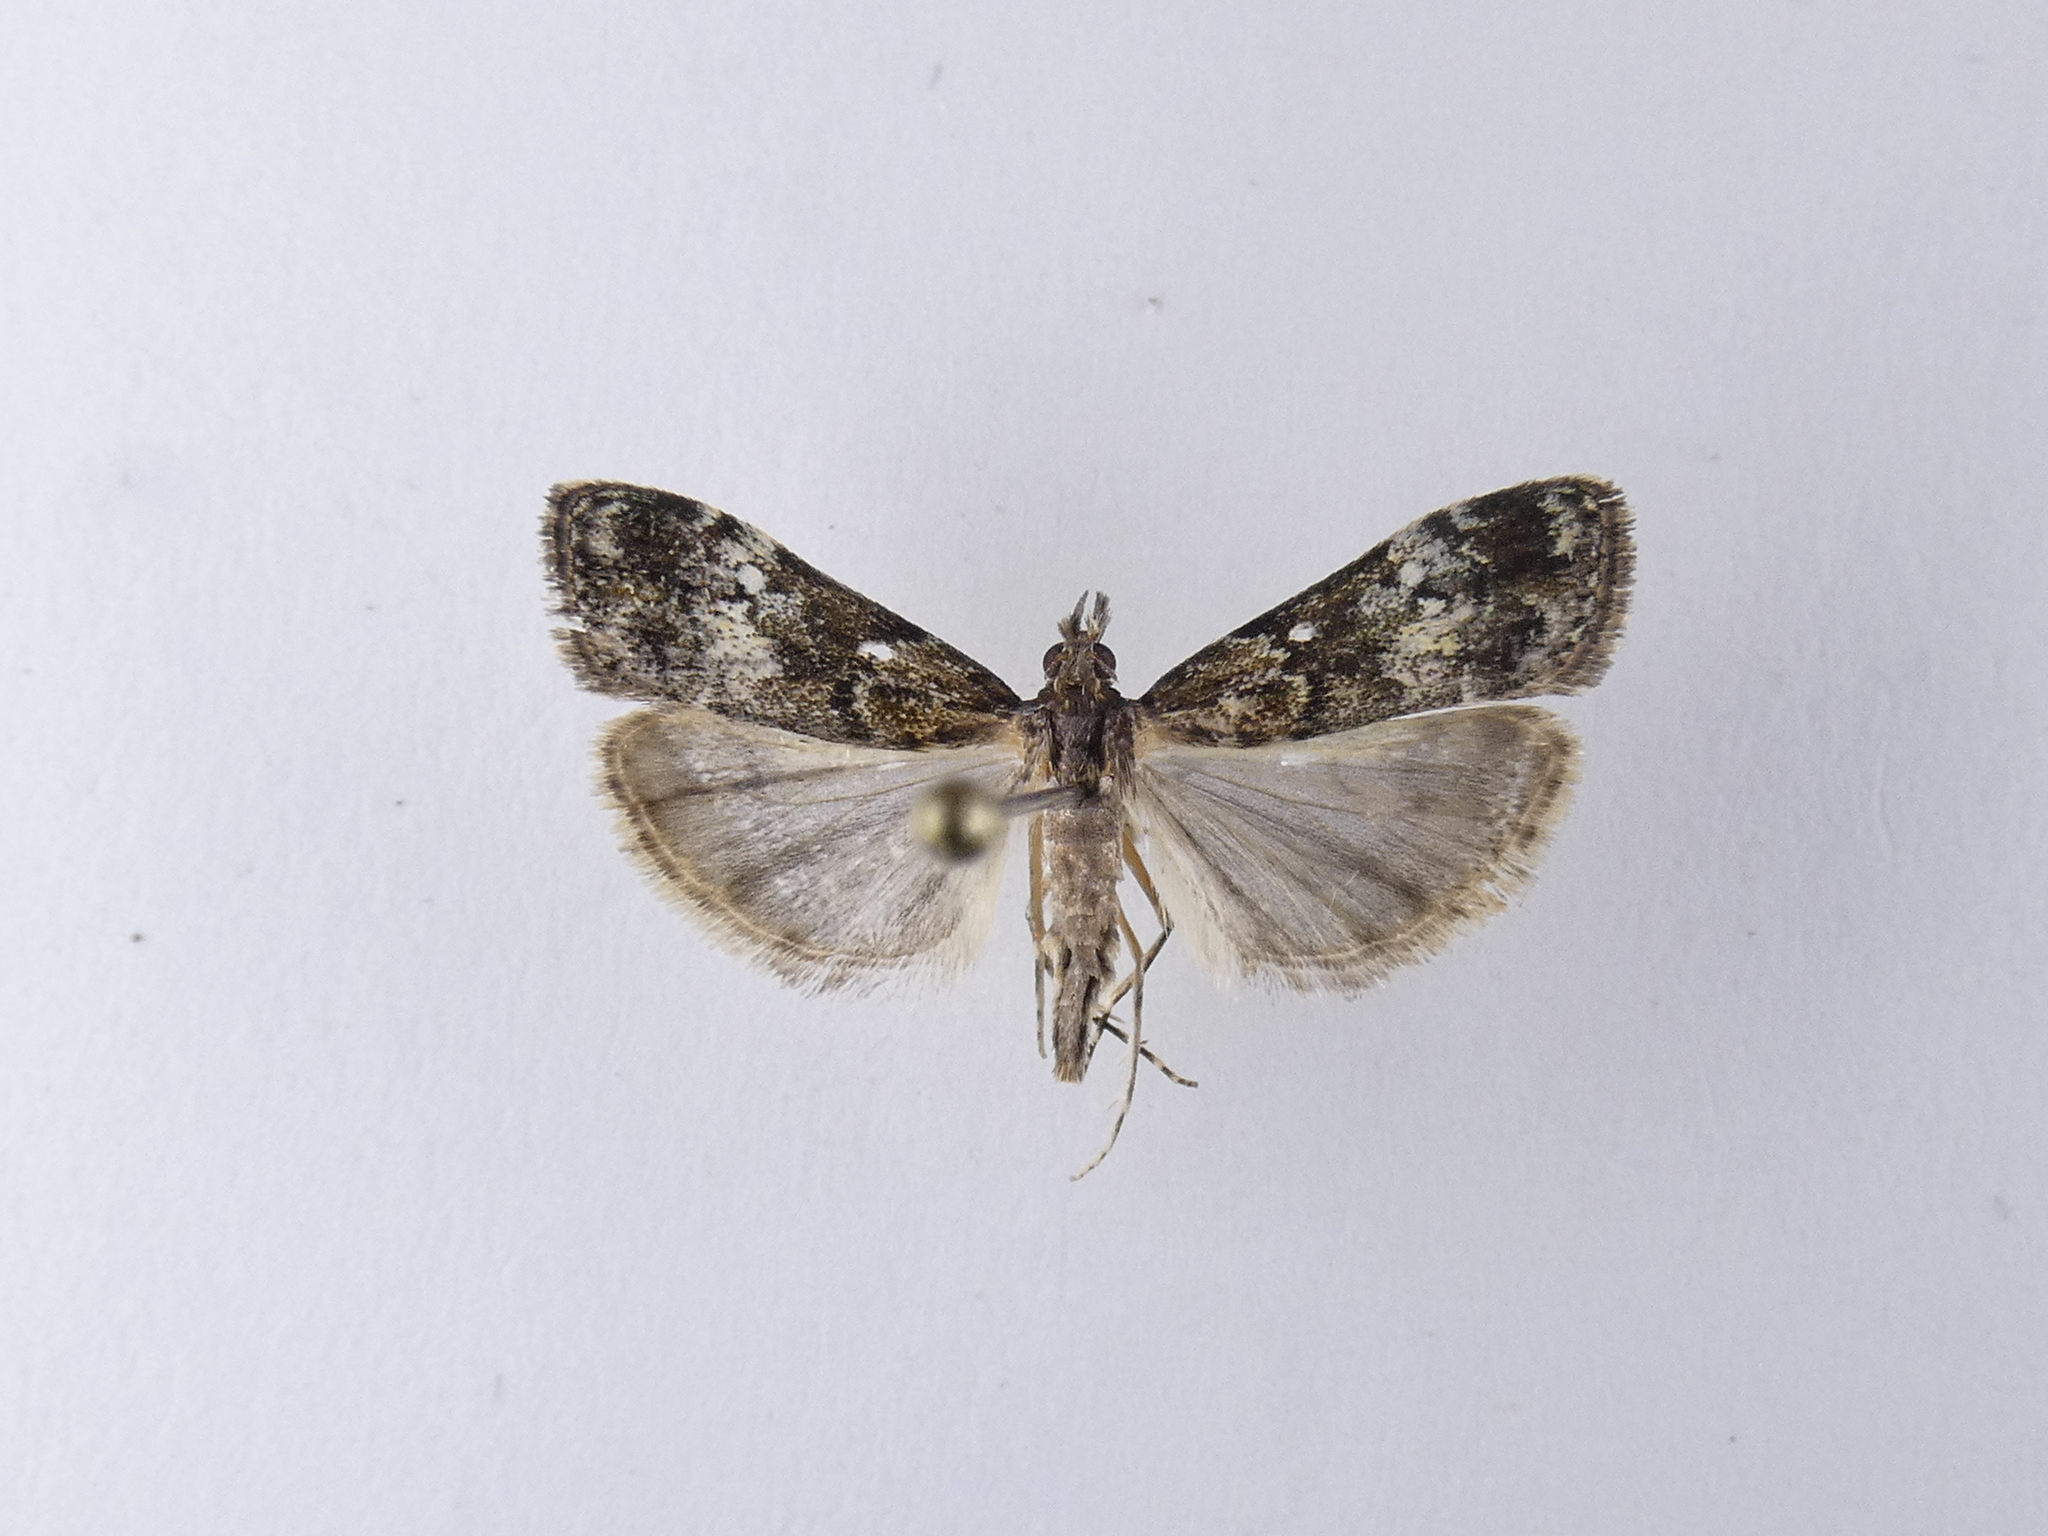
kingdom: Animalia
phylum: Arthropoda
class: Insecta
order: Lepidoptera
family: Crambidae
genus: Eudonia
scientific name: Eudonia minualis
